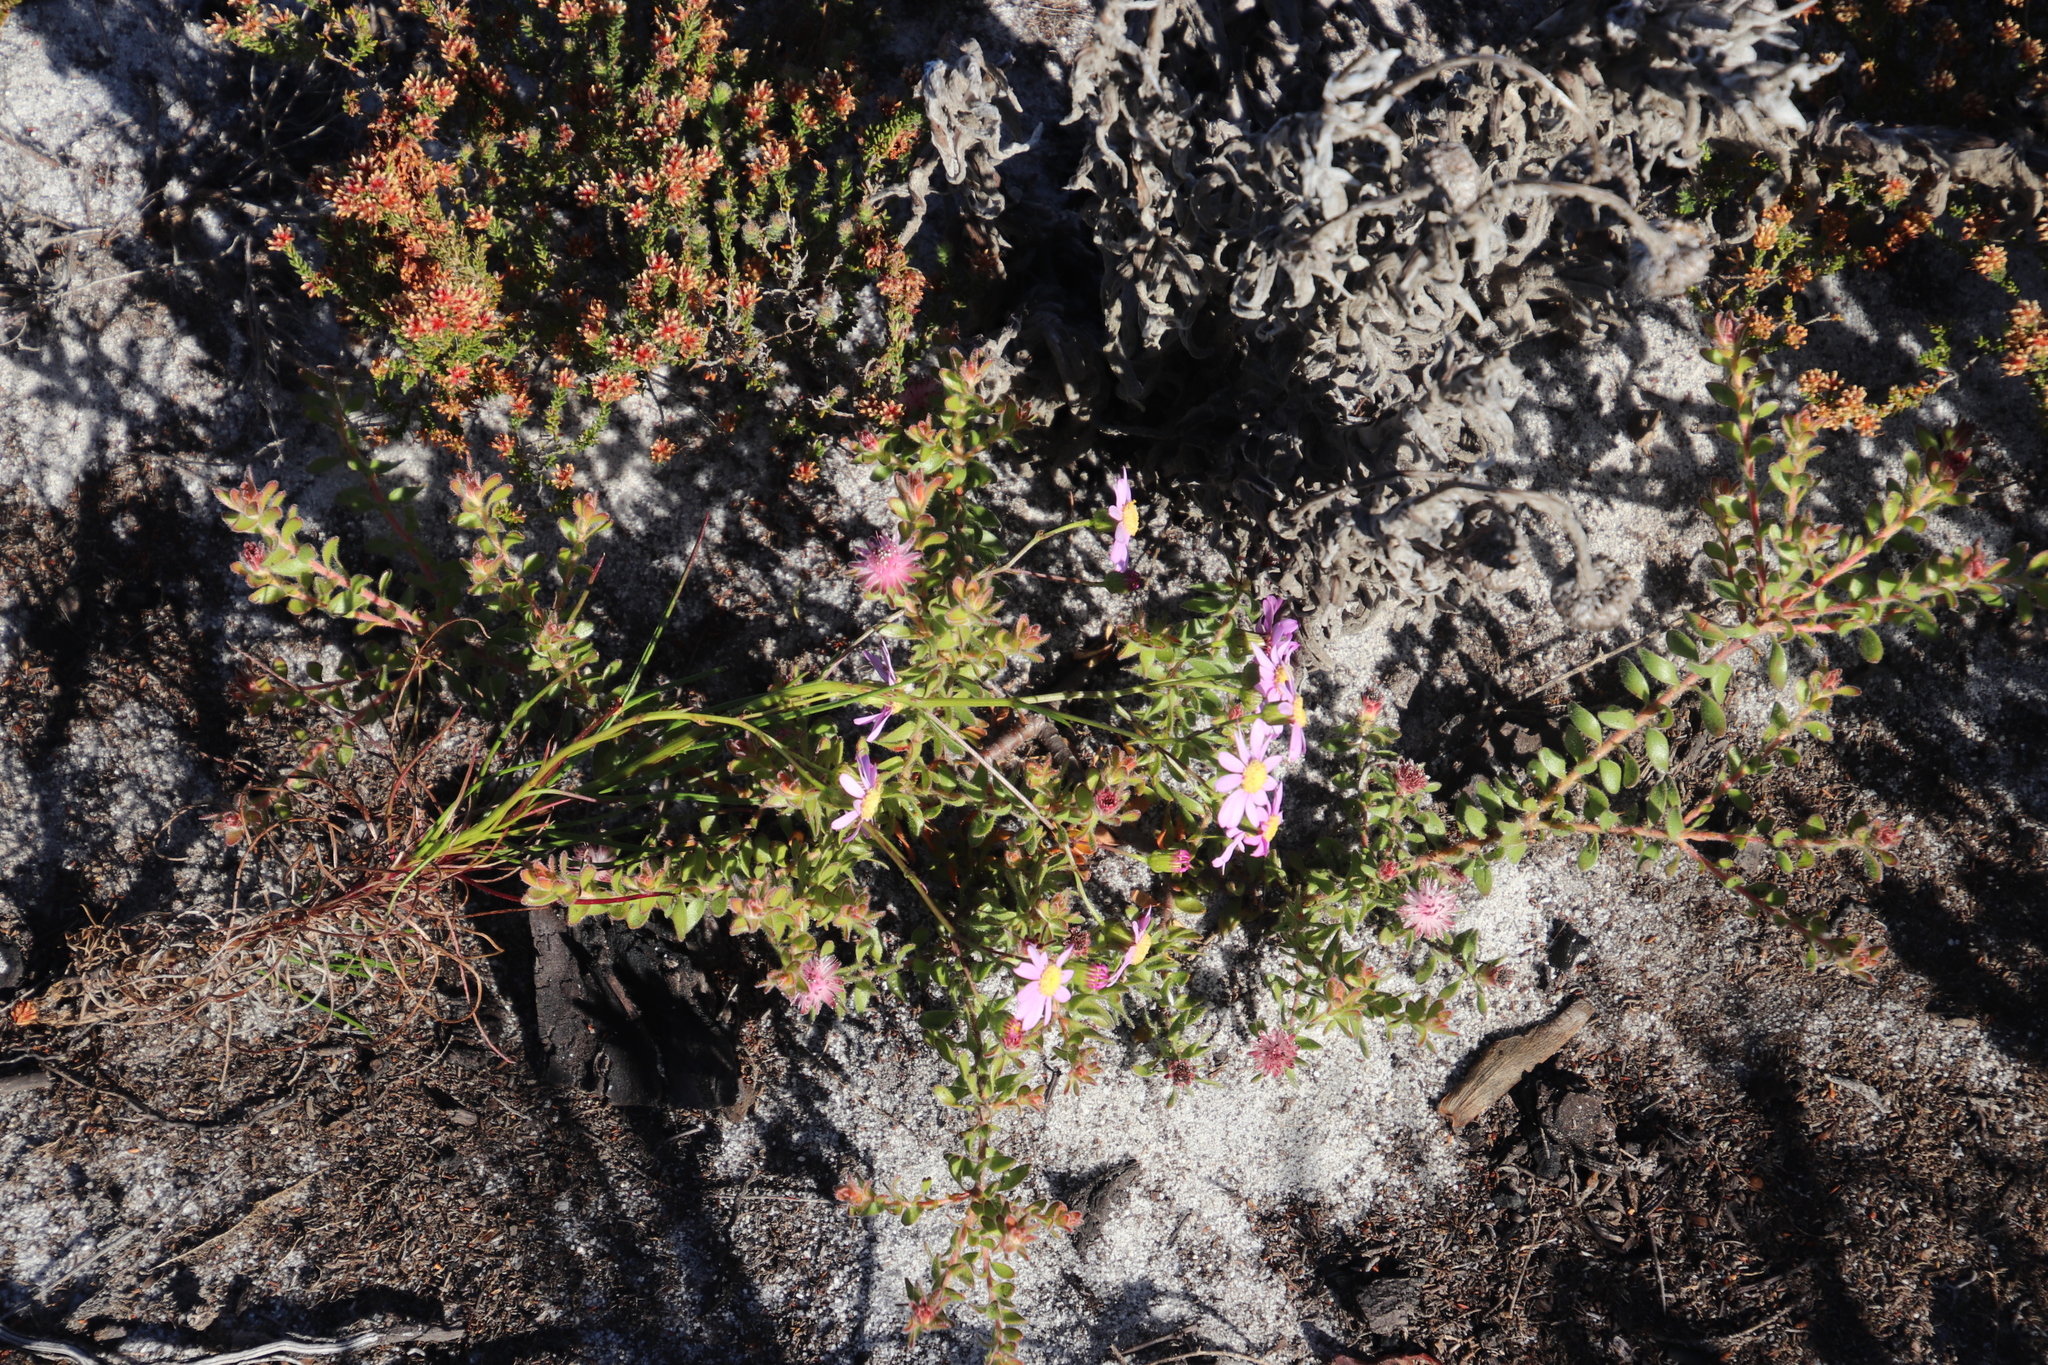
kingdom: Plantae
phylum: Tracheophyta
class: Magnoliopsida
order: Asterales
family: Asteraceae
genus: Senecio
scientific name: Senecio umbellatus
